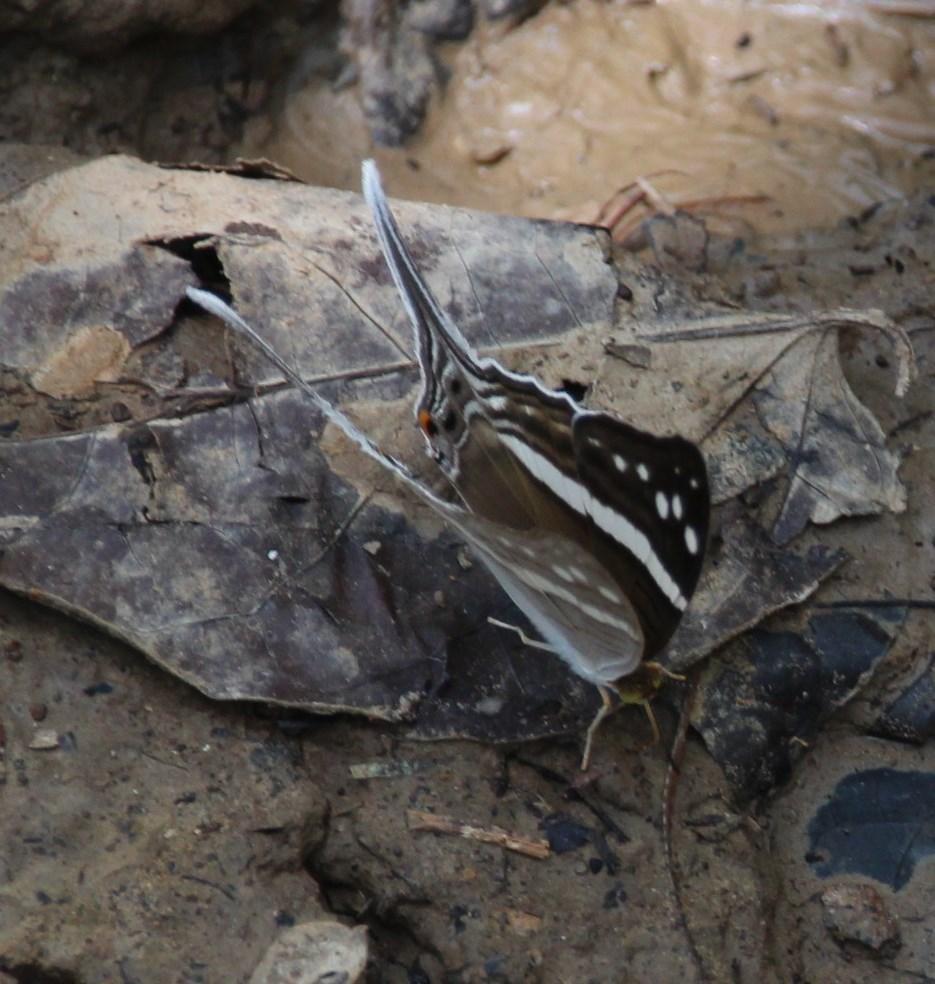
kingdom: Animalia
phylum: Arthropoda
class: Insecta
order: Lepidoptera
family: Nymphalidae
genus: Marpesia
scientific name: Marpesia crethon
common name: Crethon daggerwing
